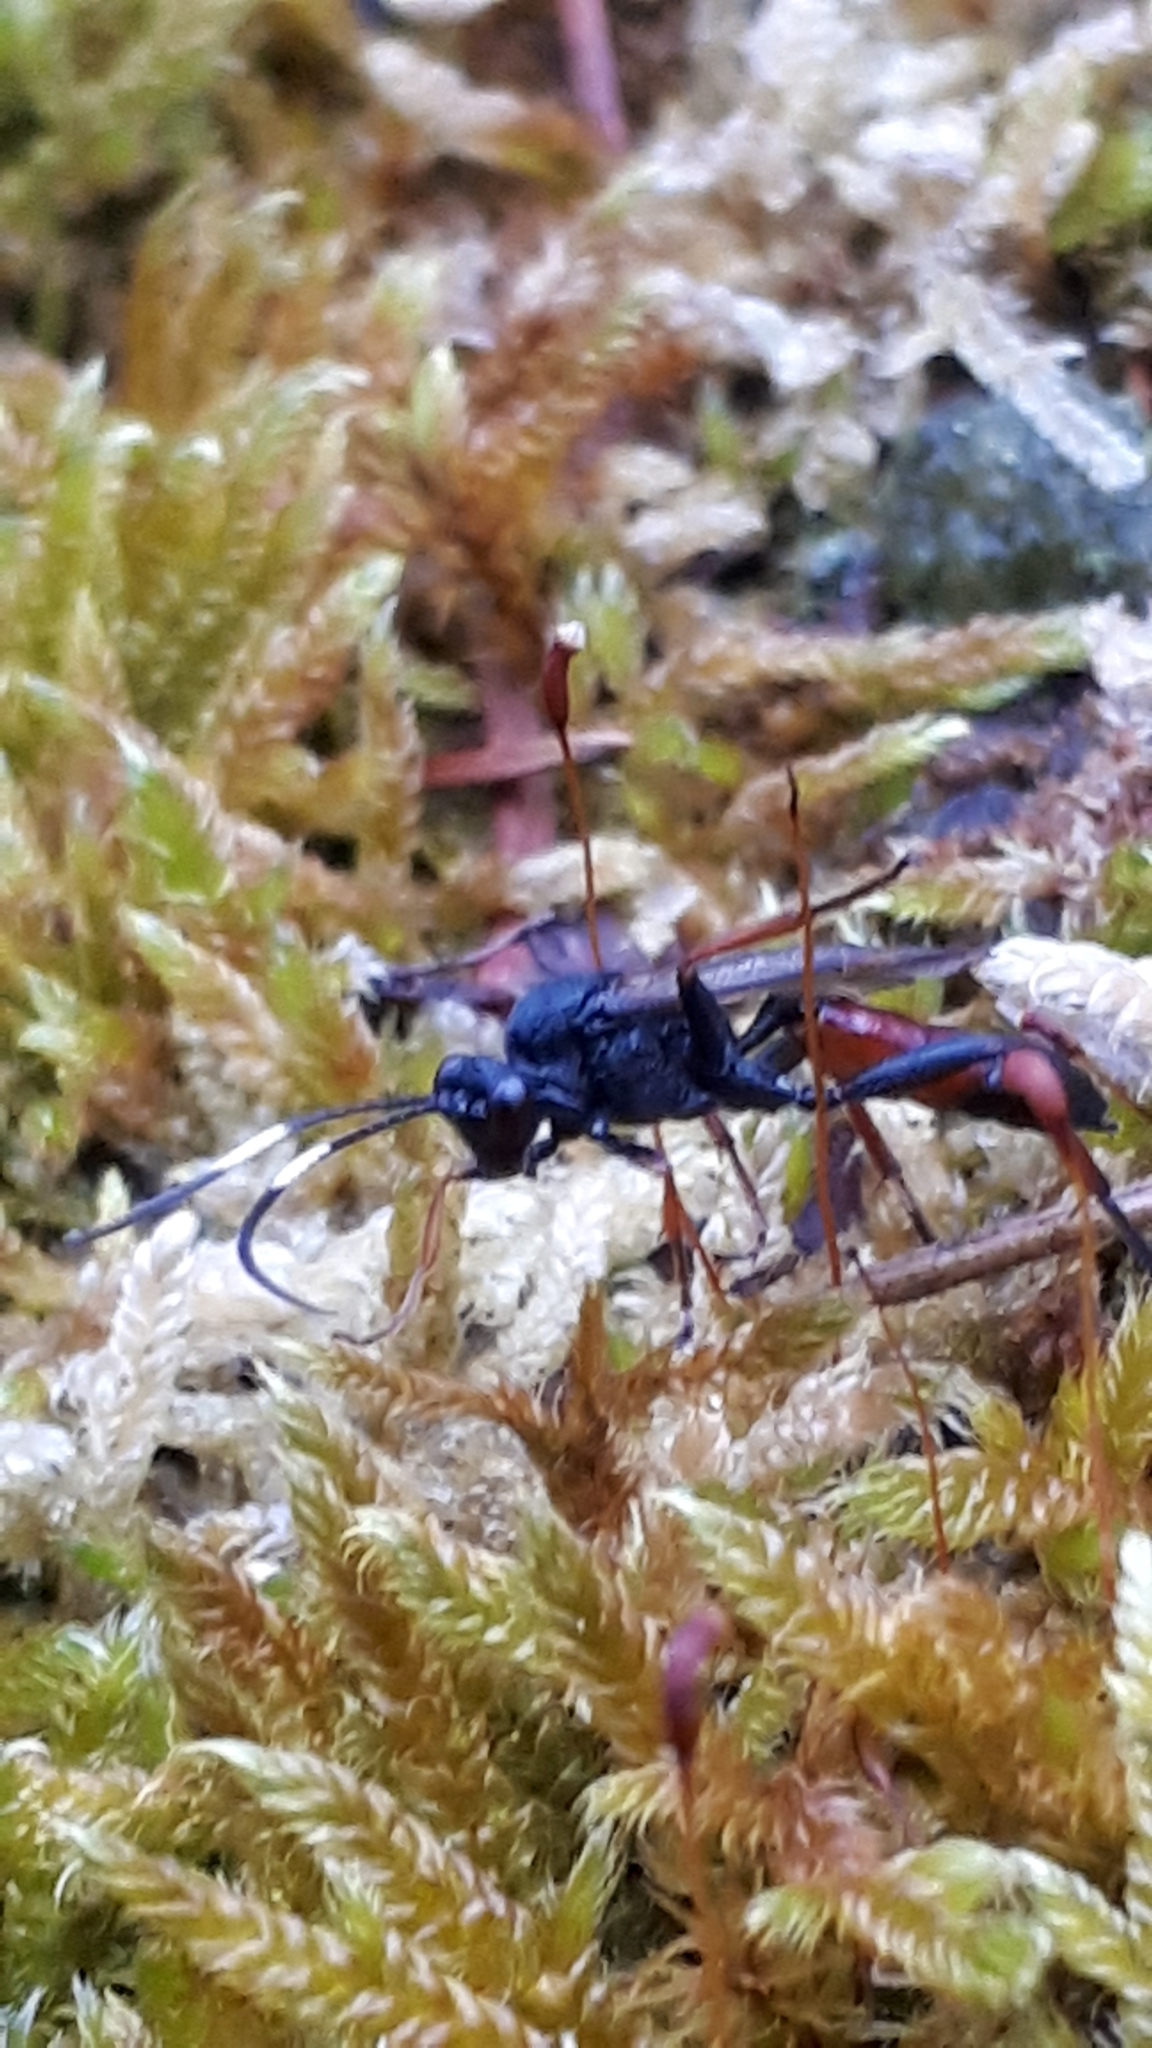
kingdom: Animalia
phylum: Arthropoda
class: Insecta
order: Hymenoptera
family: Ichneumonidae
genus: Stenichneumon
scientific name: Stenichneumon culpator
